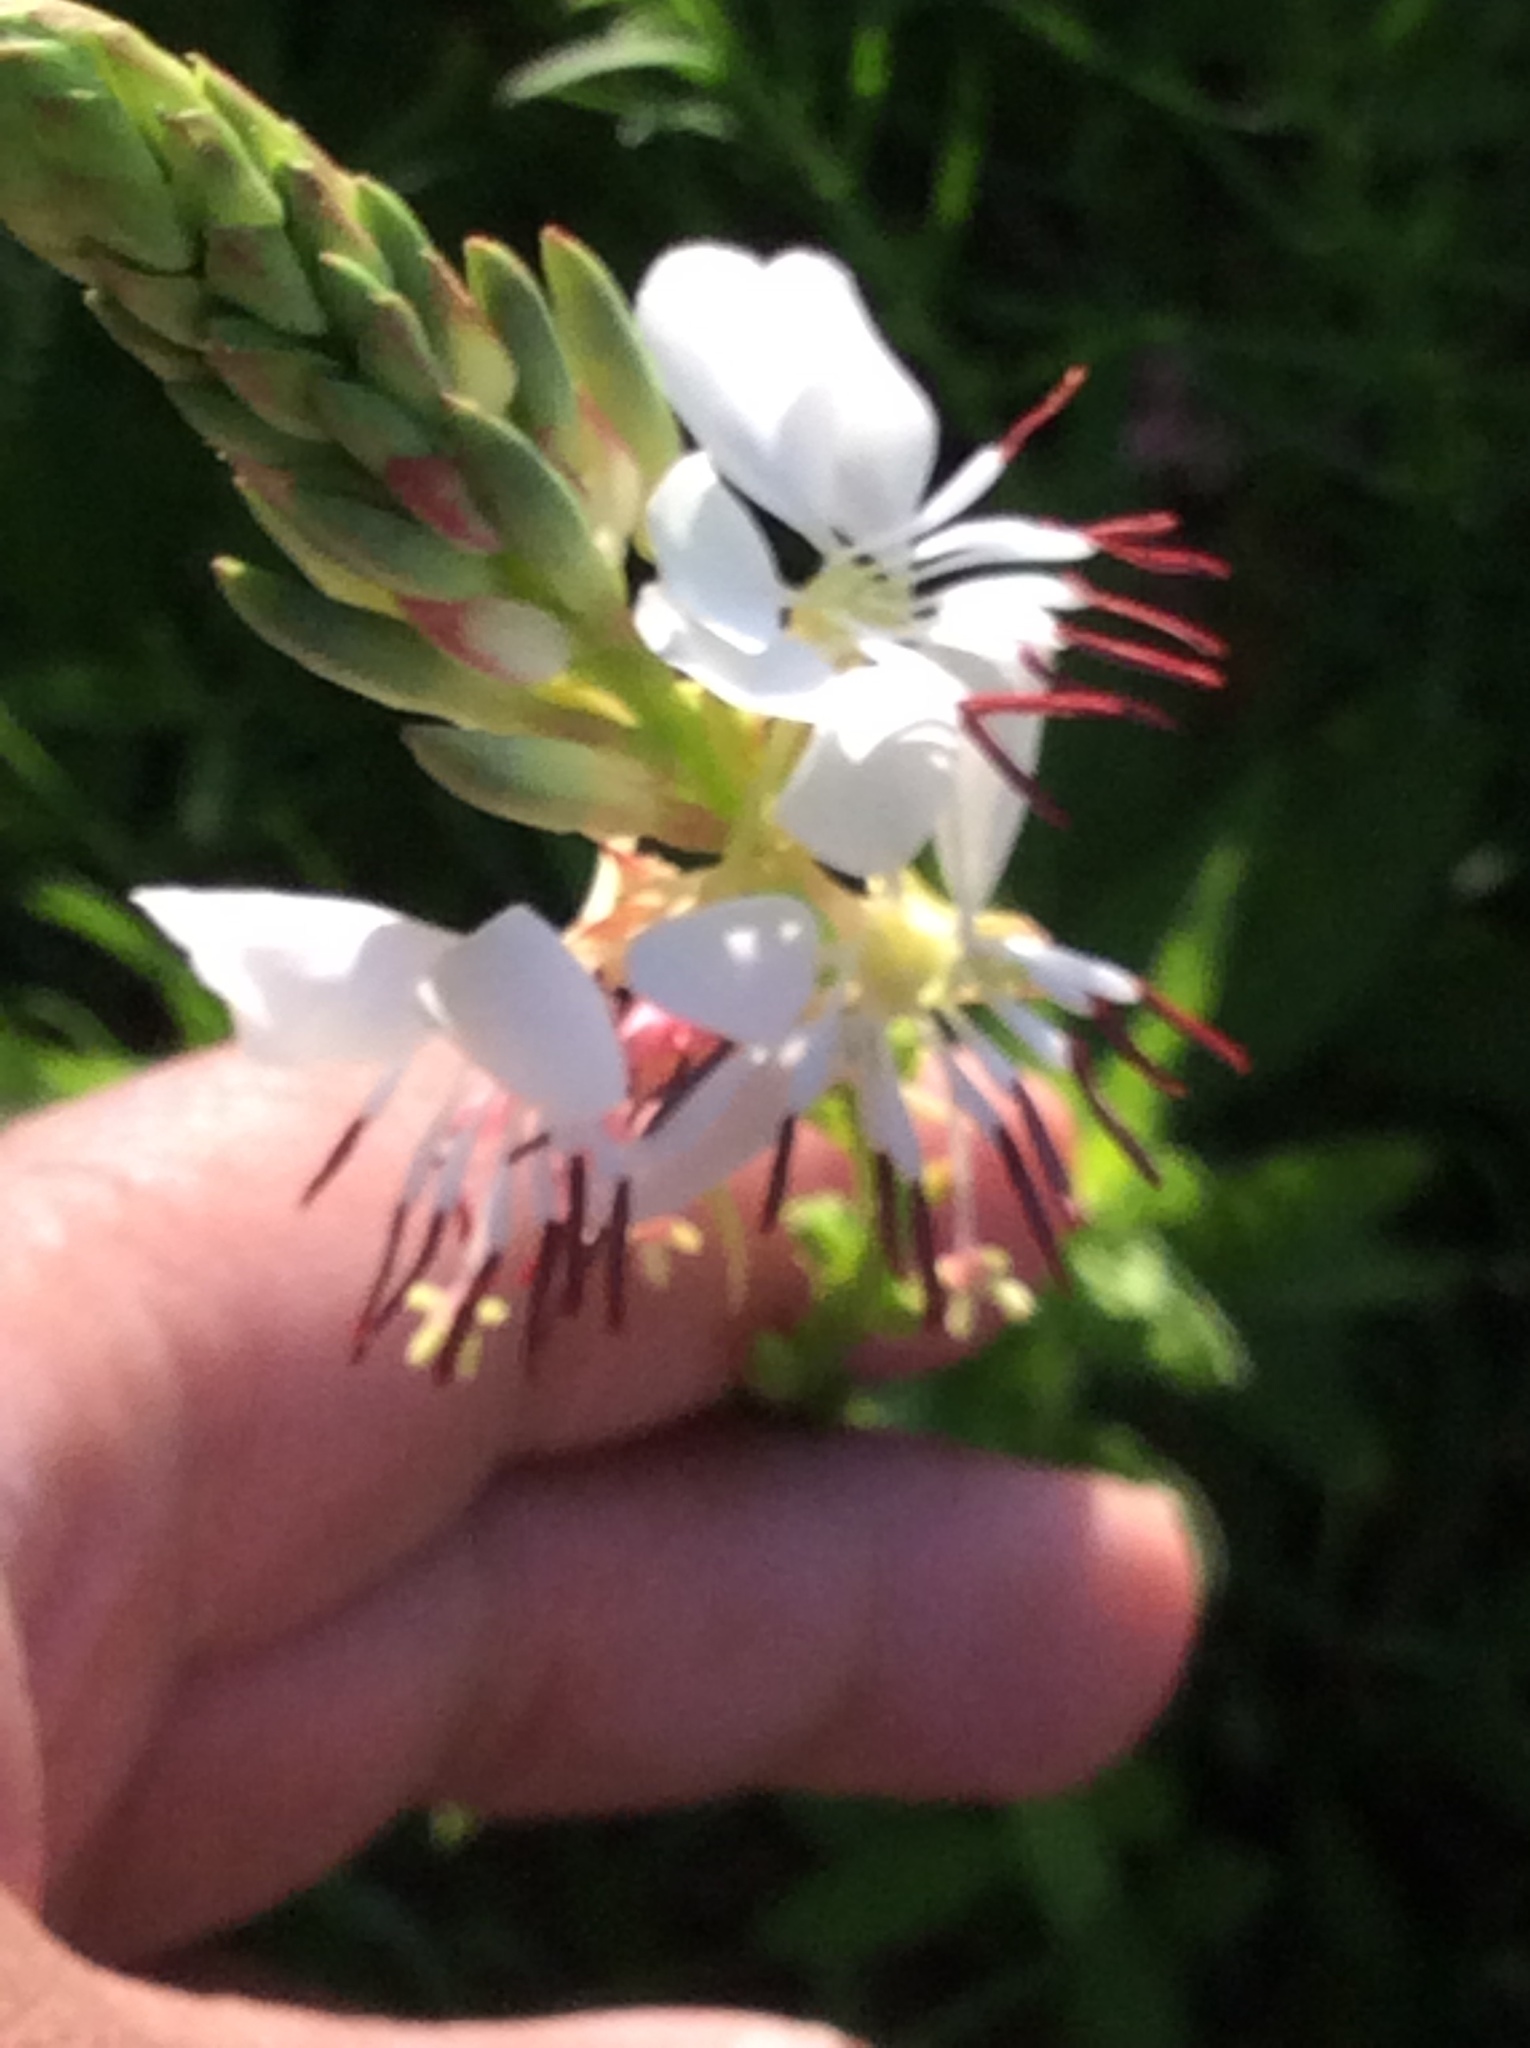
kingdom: Plantae
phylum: Tracheophyta
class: Magnoliopsida
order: Myrtales
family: Onagraceae
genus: Oenothera
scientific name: Oenothera suffulta
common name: Kisses
